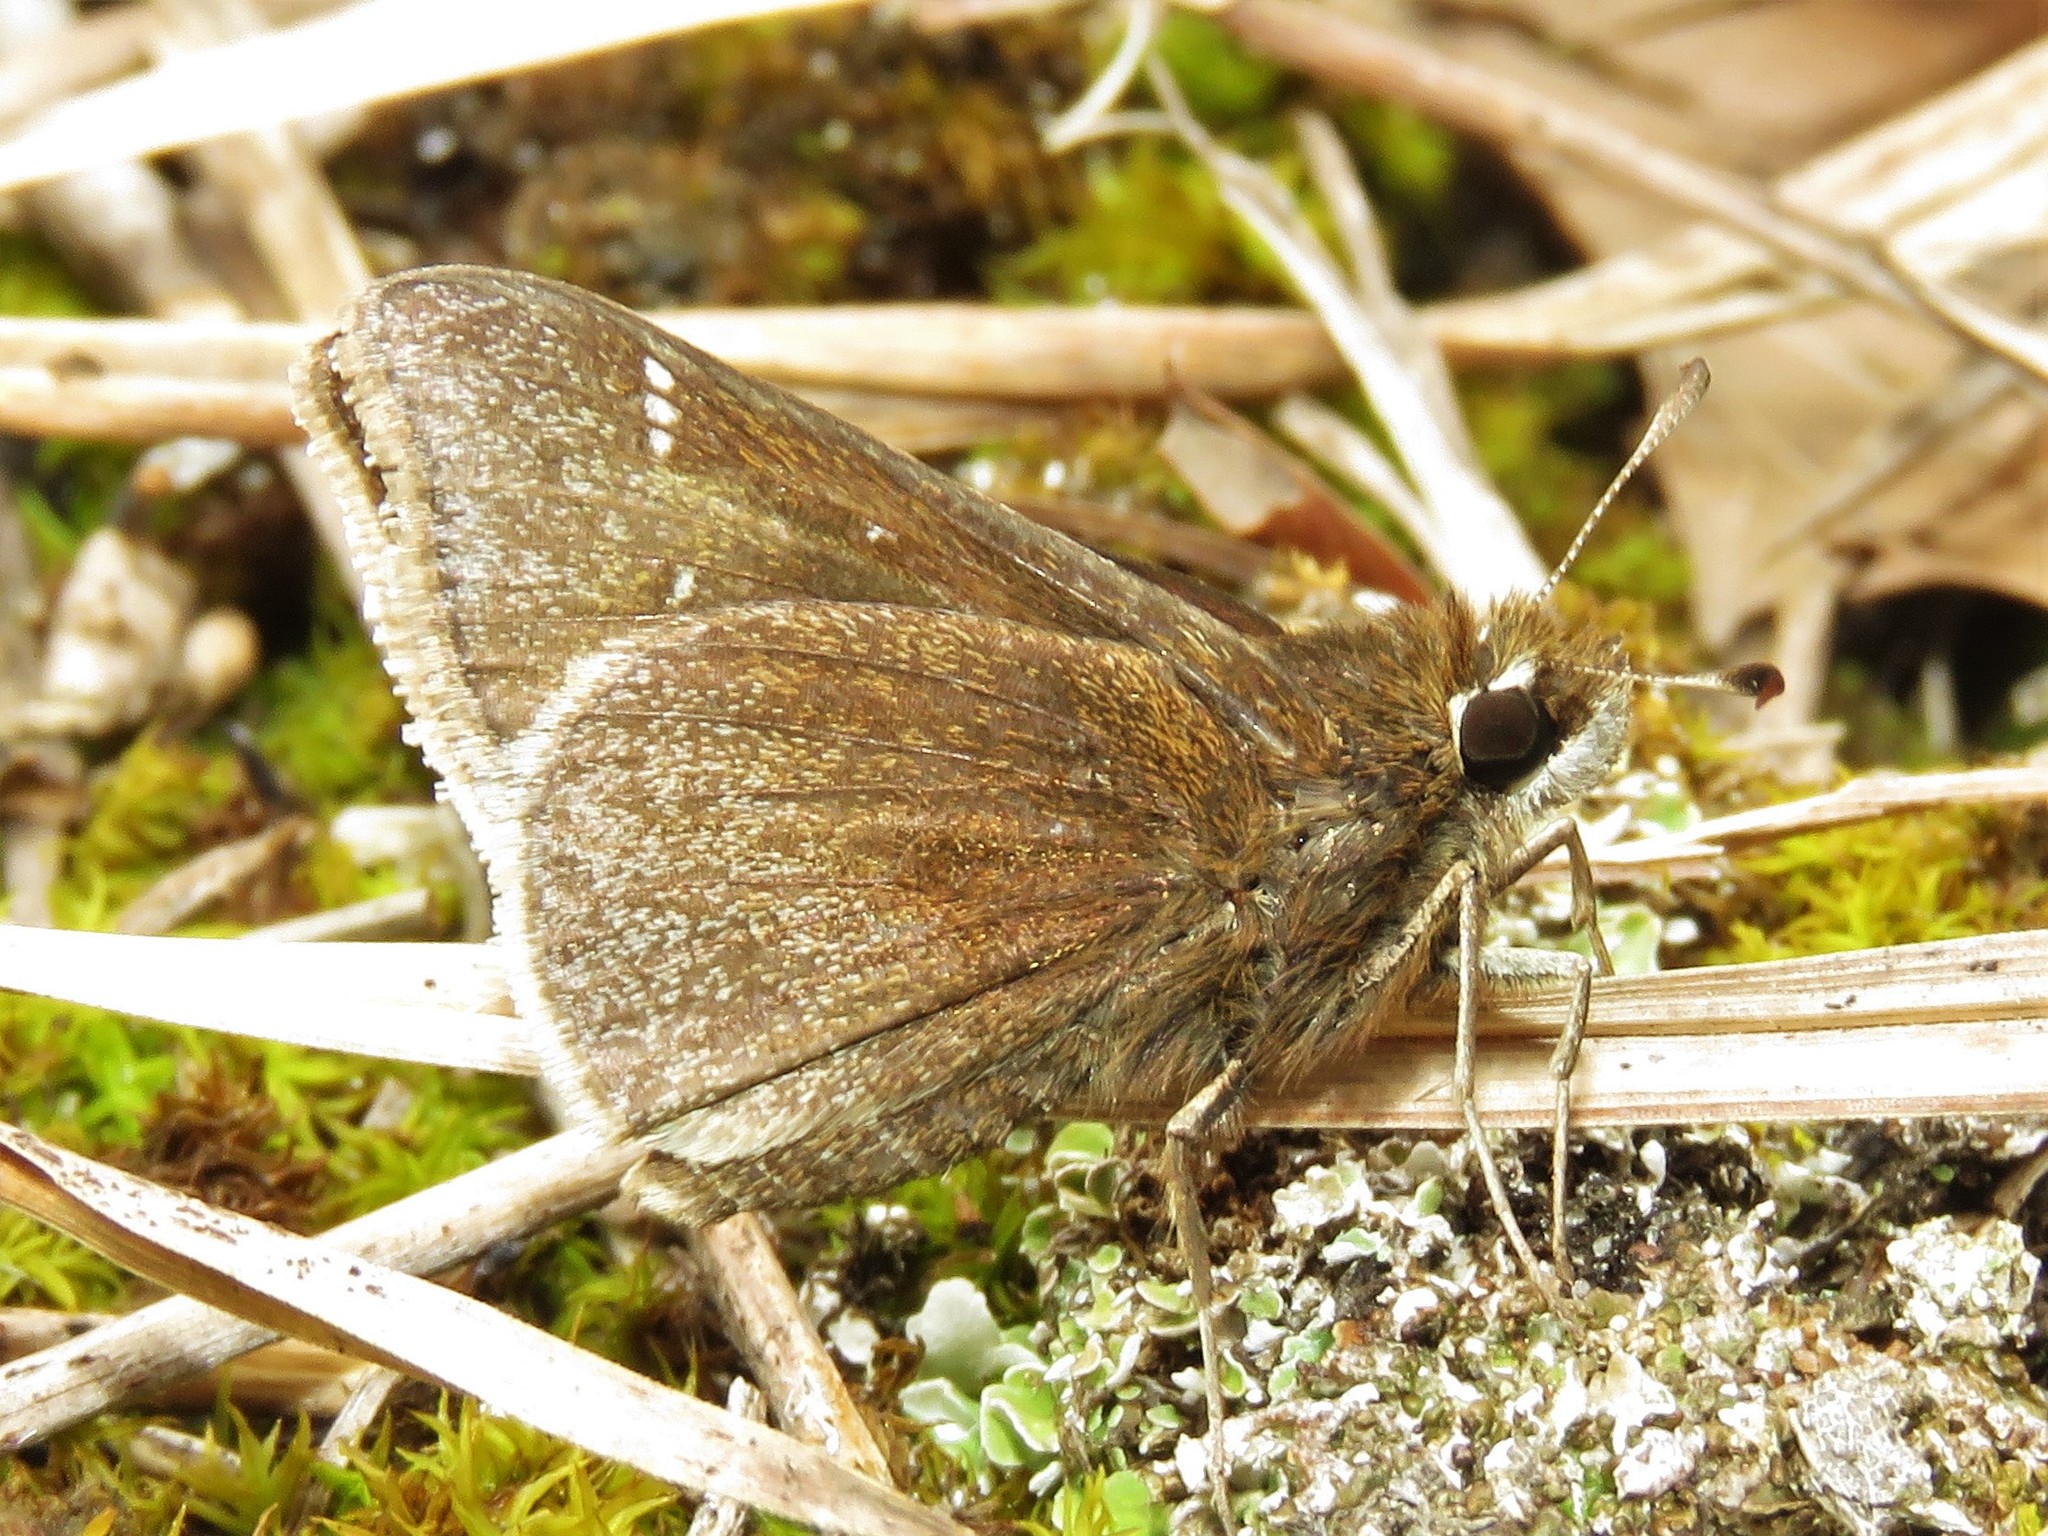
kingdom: Animalia
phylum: Arthropoda
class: Insecta
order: Lepidoptera
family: Hesperiidae
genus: Atrytonopsis
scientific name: Atrytonopsis hianna
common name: Dusted skipper
